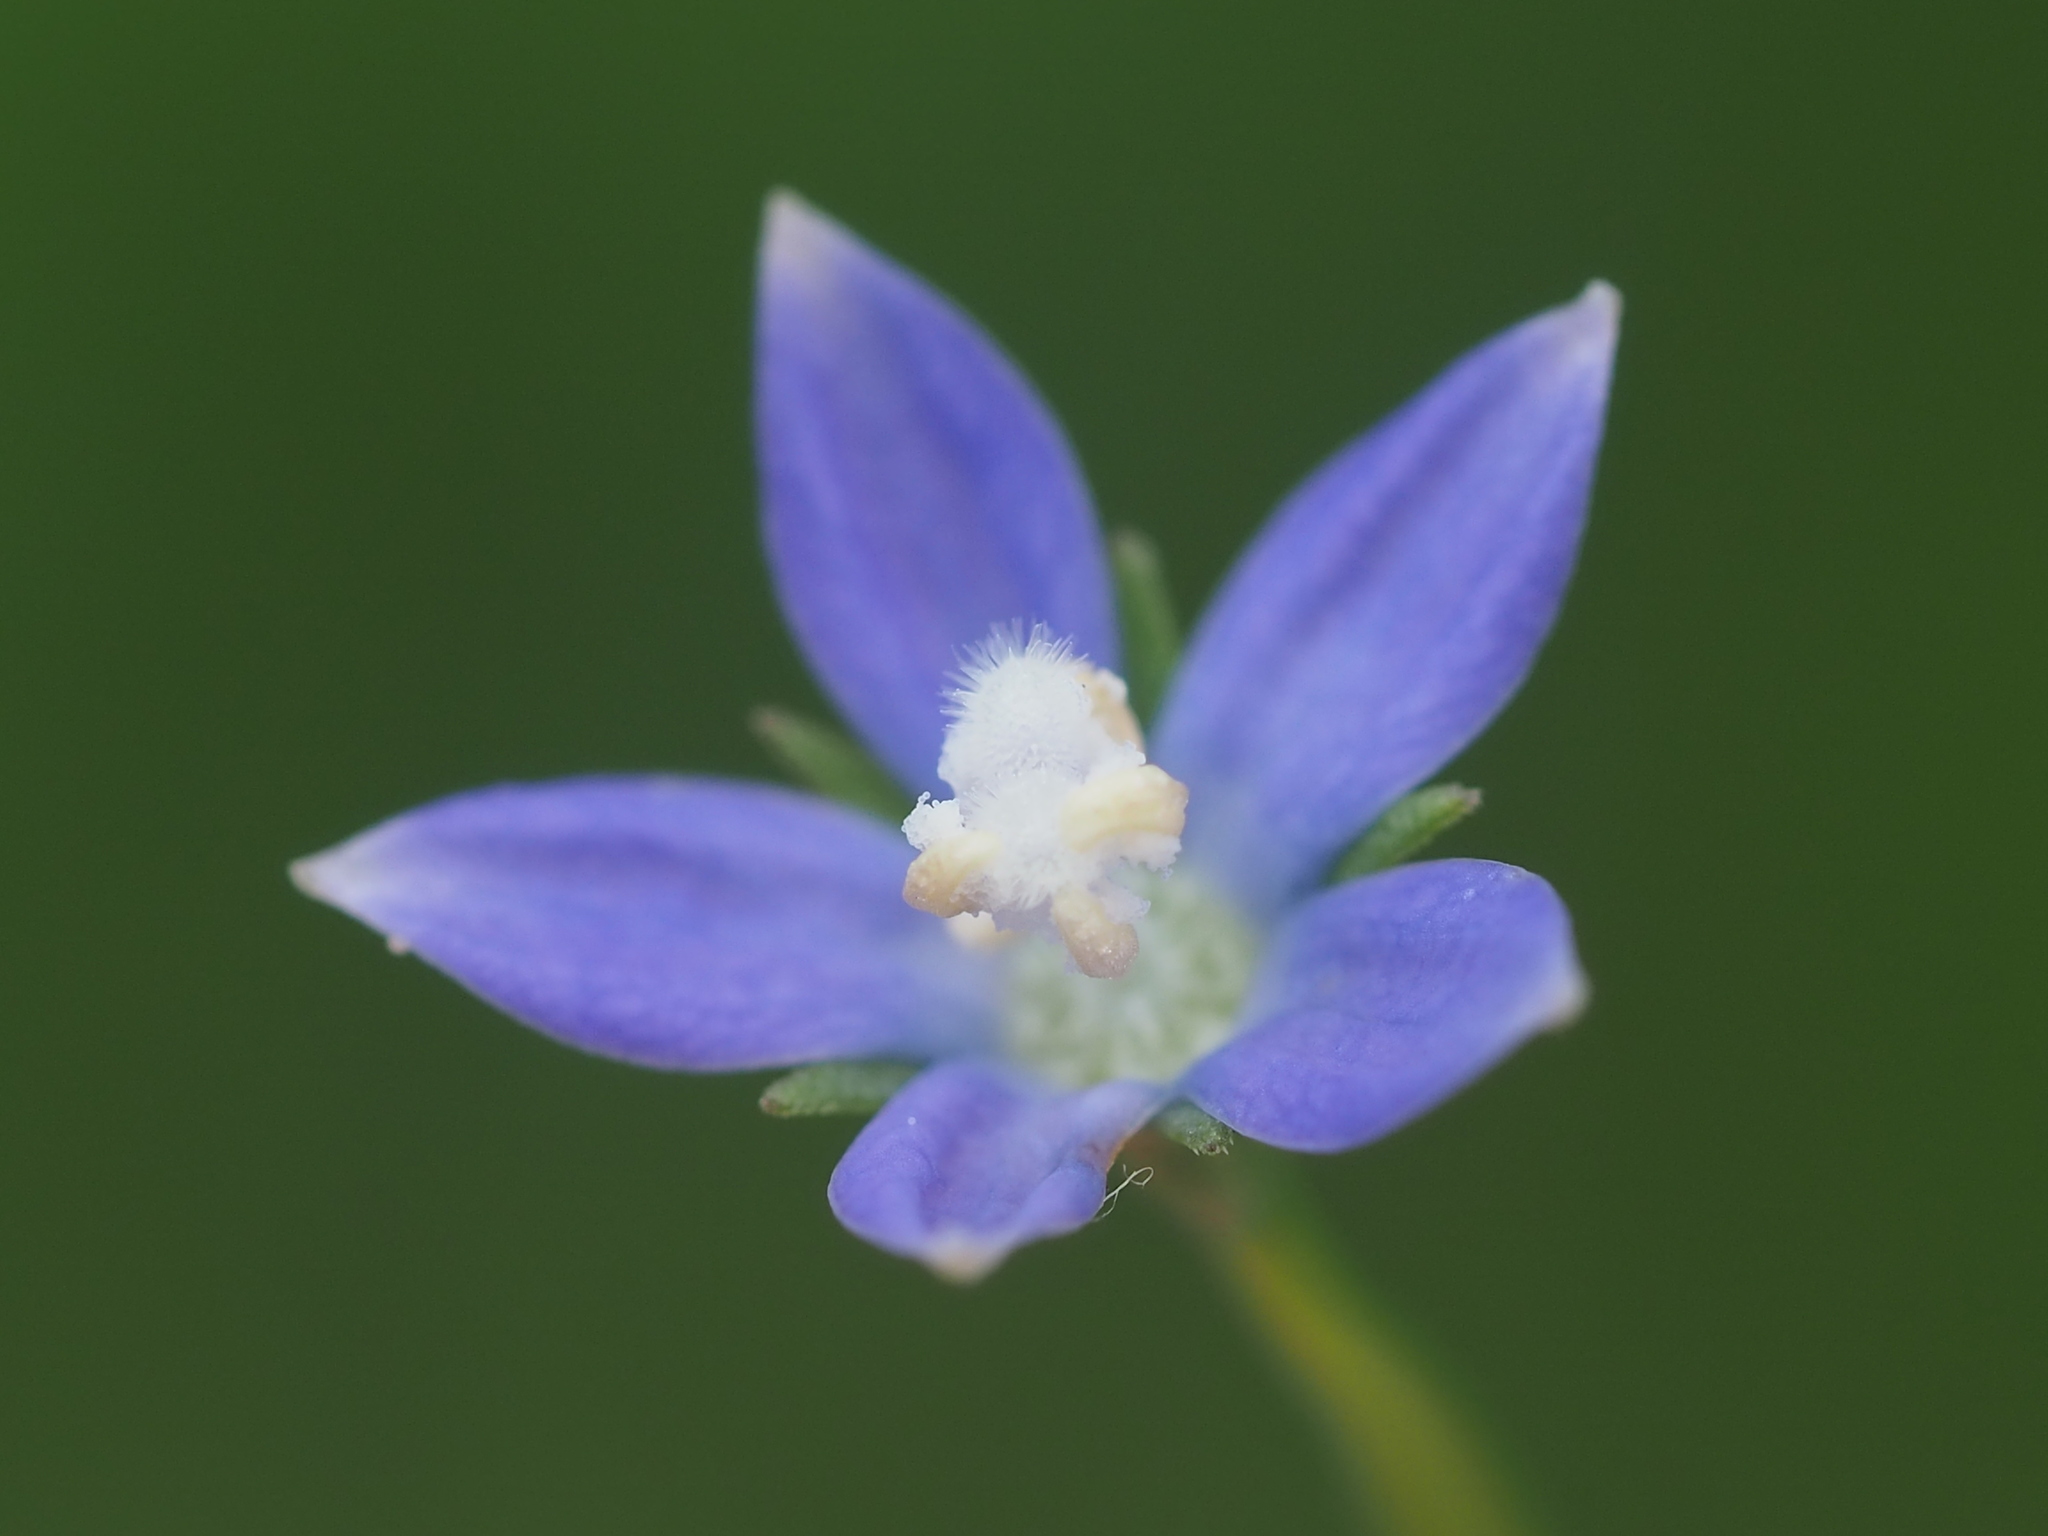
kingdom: Plantae
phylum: Tracheophyta
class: Magnoliopsida
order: Asterales
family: Campanulaceae
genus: Wahlenbergia
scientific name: Wahlenbergia marginata
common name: Southern rockbell
